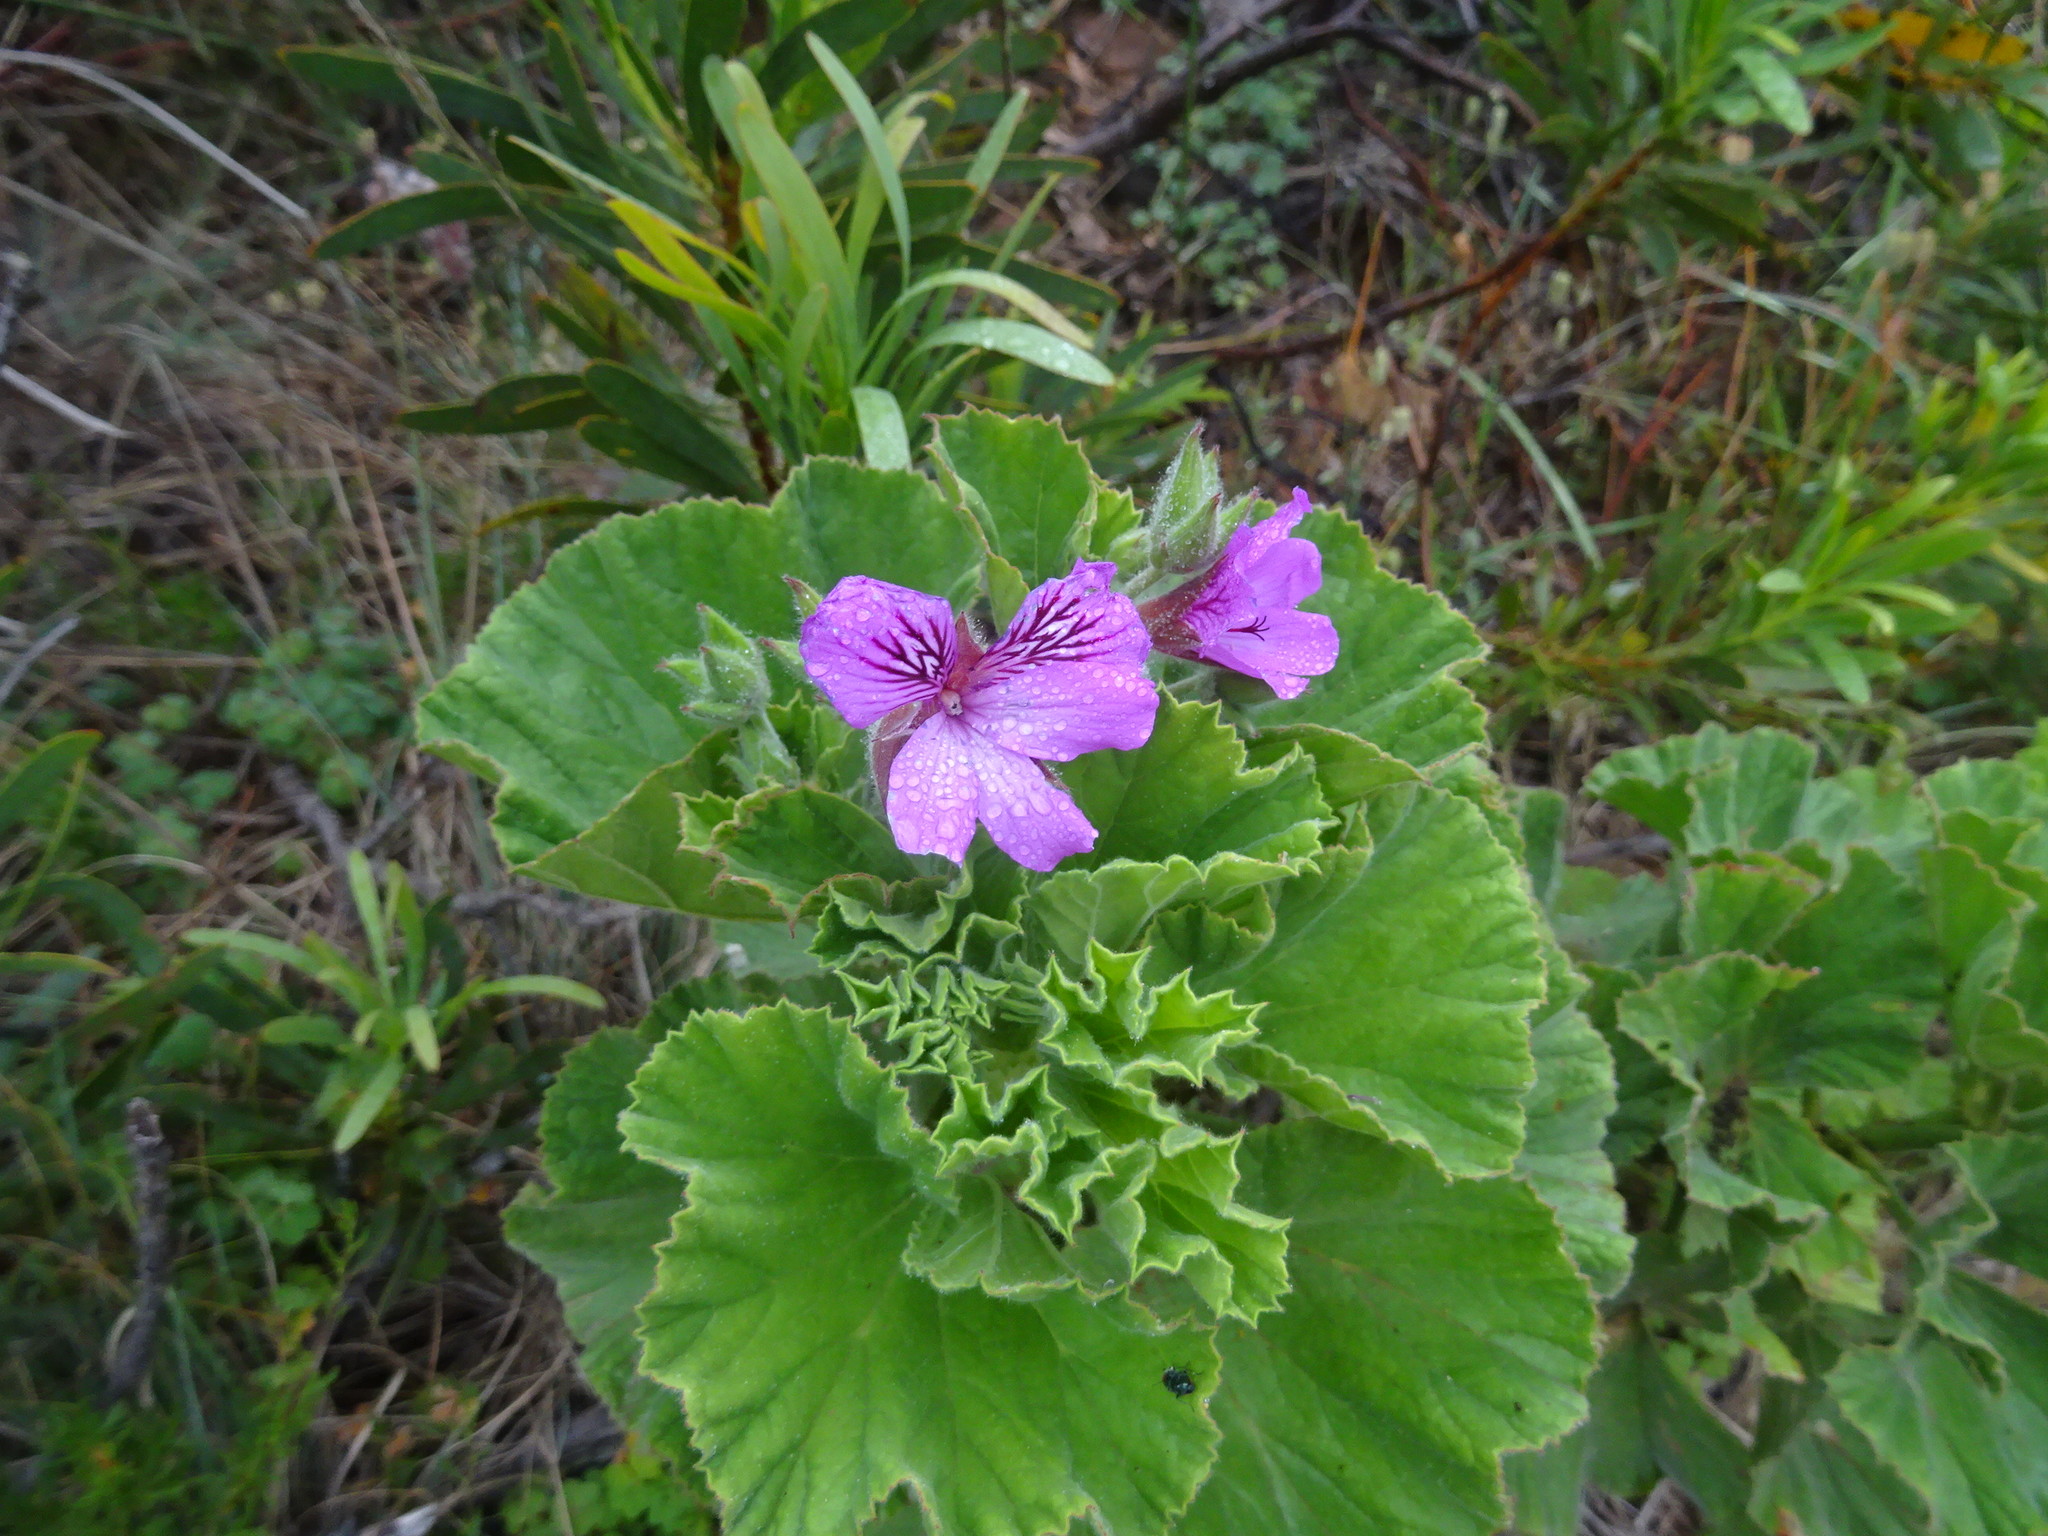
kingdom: Plantae
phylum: Tracheophyta
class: Magnoliopsida
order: Geraniales
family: Geraniaceae
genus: Pelargonium
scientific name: Pelargonium cucullatum
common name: Tree pelargonium
